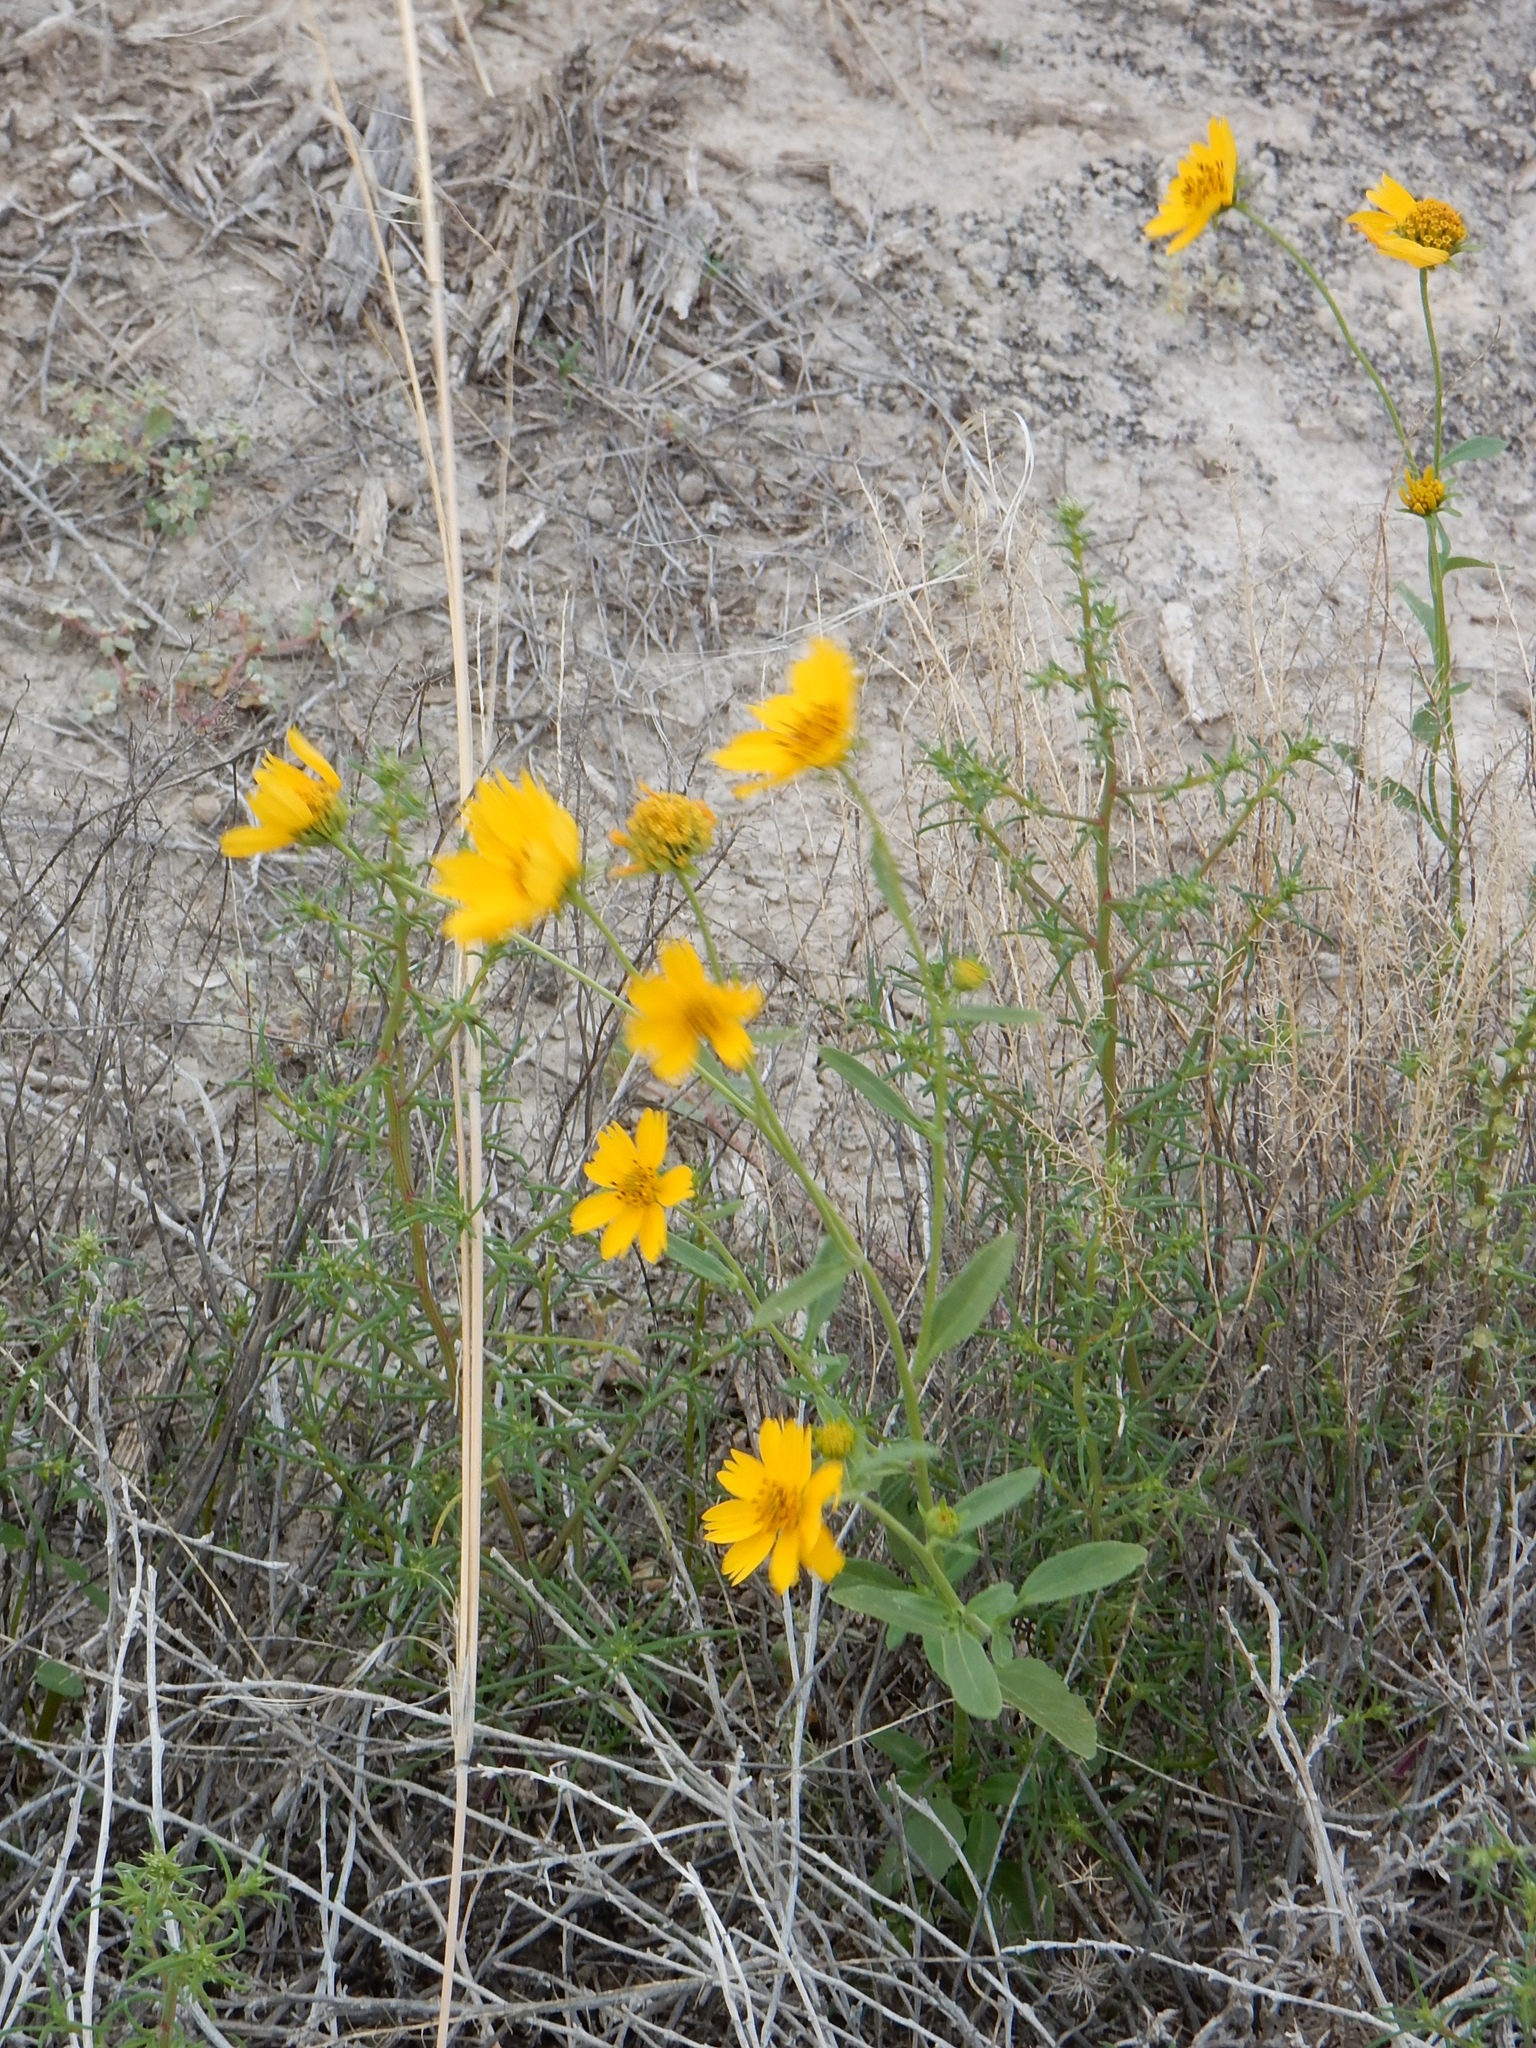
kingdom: Plantae
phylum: Tracheophyta
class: Magnoliopsida
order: Asterales
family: Asteraceae
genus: Verbesina
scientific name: Verbesina encelioides
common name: Golden crownbeard
